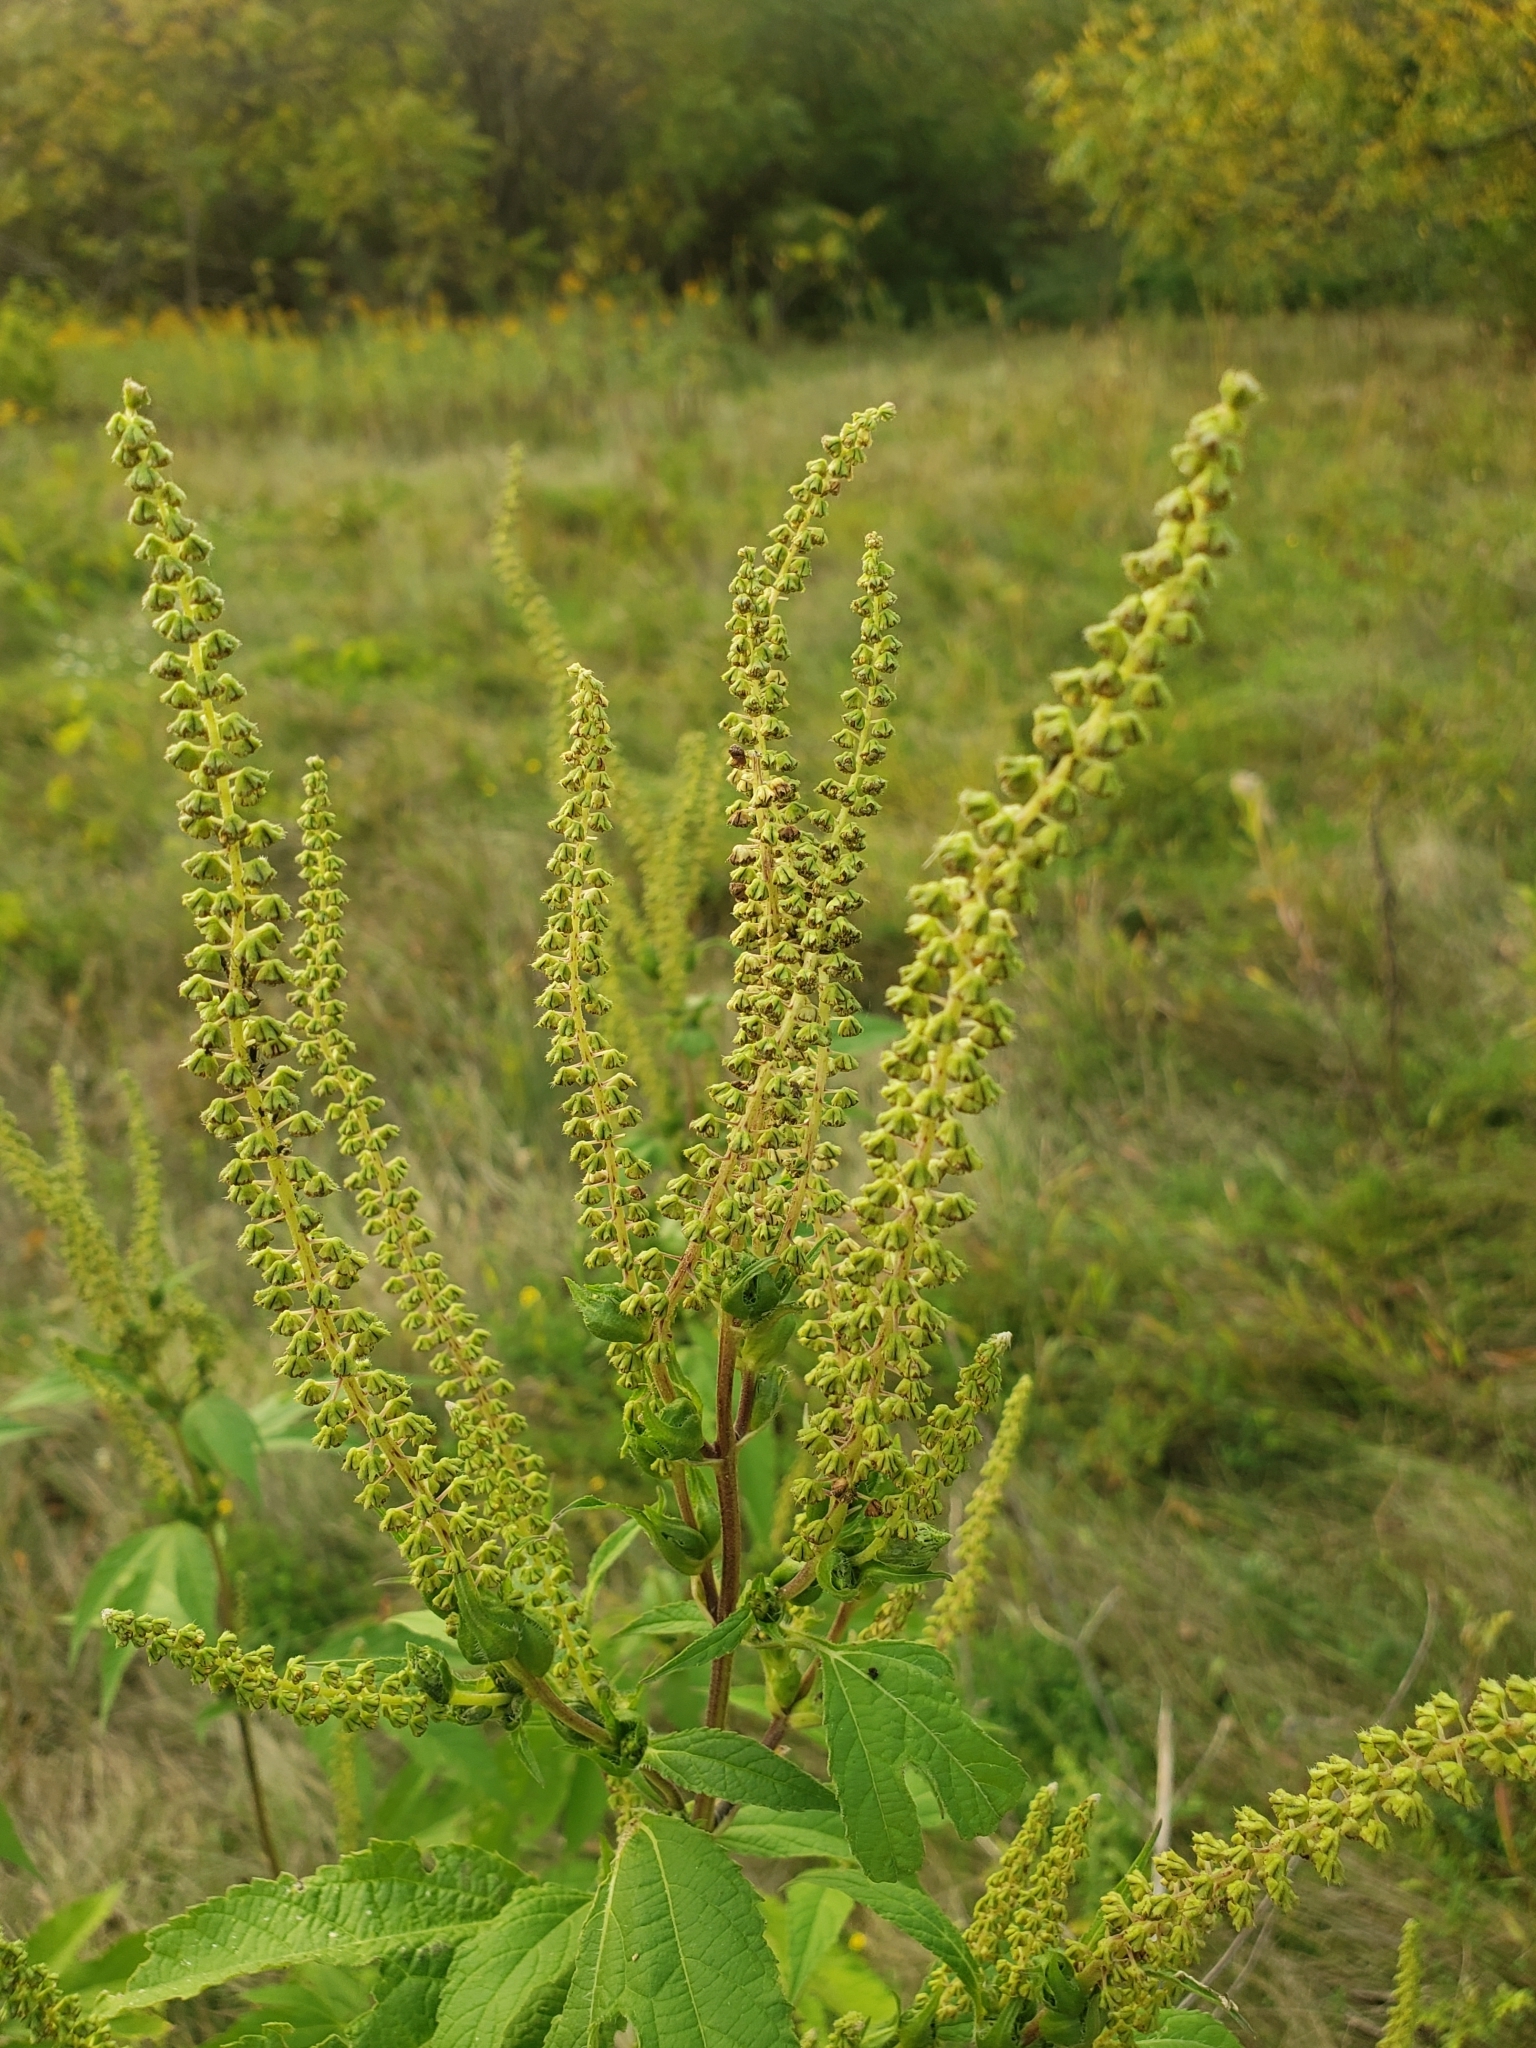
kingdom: Plantae
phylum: Tracheophyta
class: Magnoliopsida
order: Asterales
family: Asteraceae
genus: Ambrosia
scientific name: Ambrosia trifida
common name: Giant ragweed
